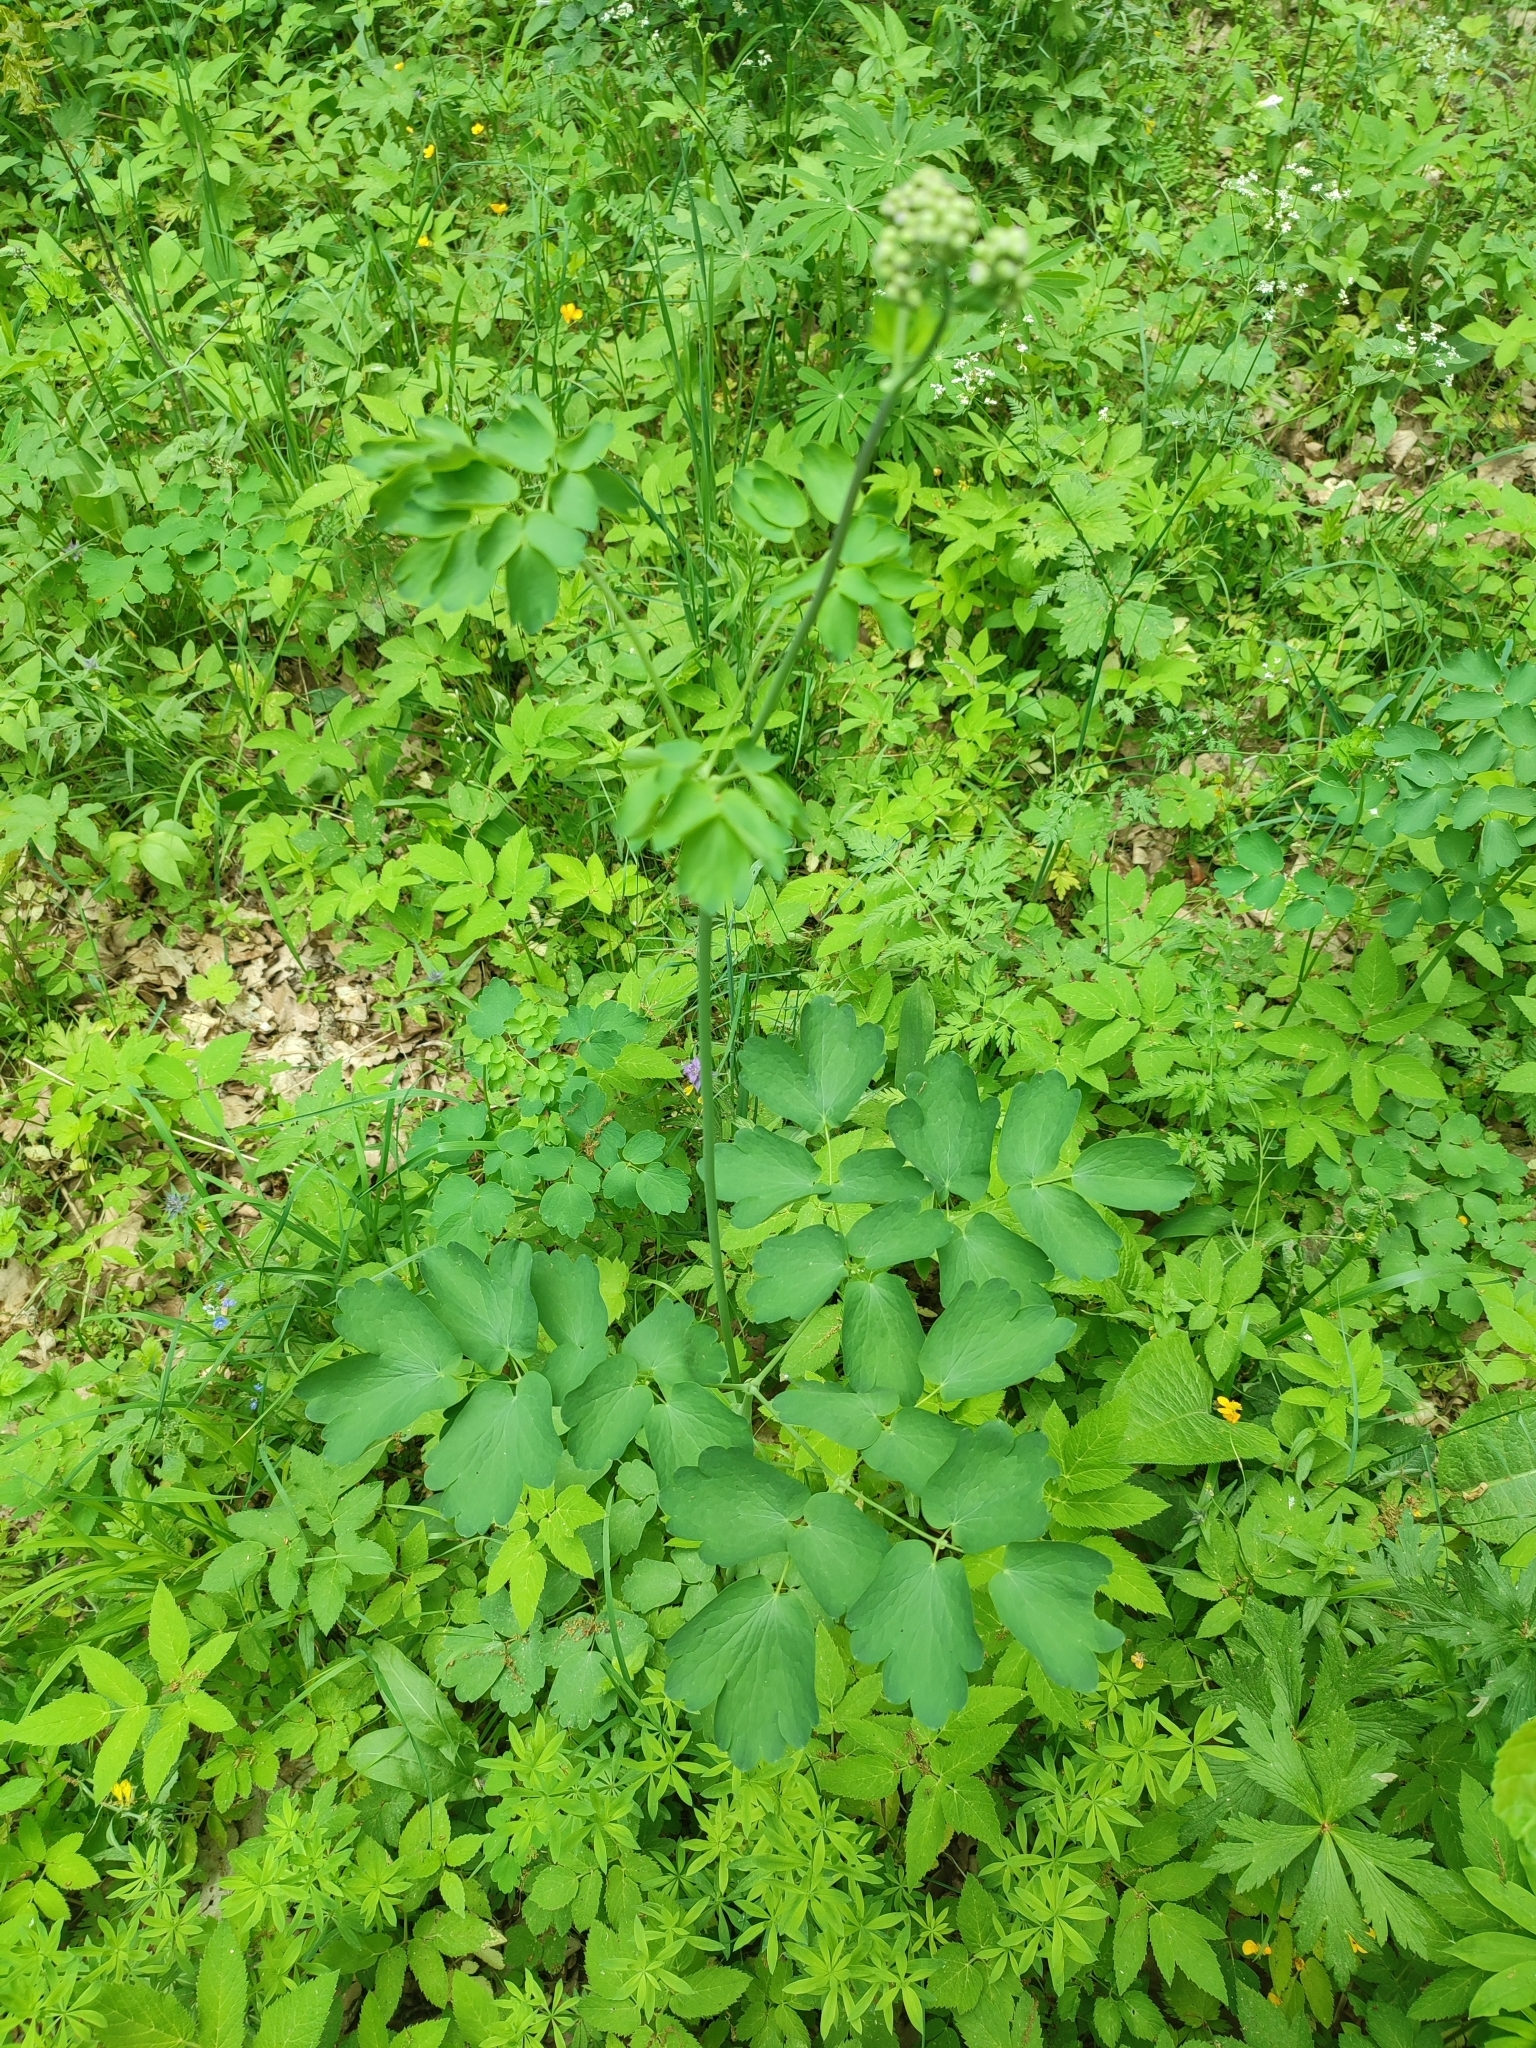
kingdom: Plantae
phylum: Tracheophyta
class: Magnoliopsida
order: Ranunculales
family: Ranunculaceae
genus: Thalictrum
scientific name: Thalictrum aquilegiifolium
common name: French meadow-rue
